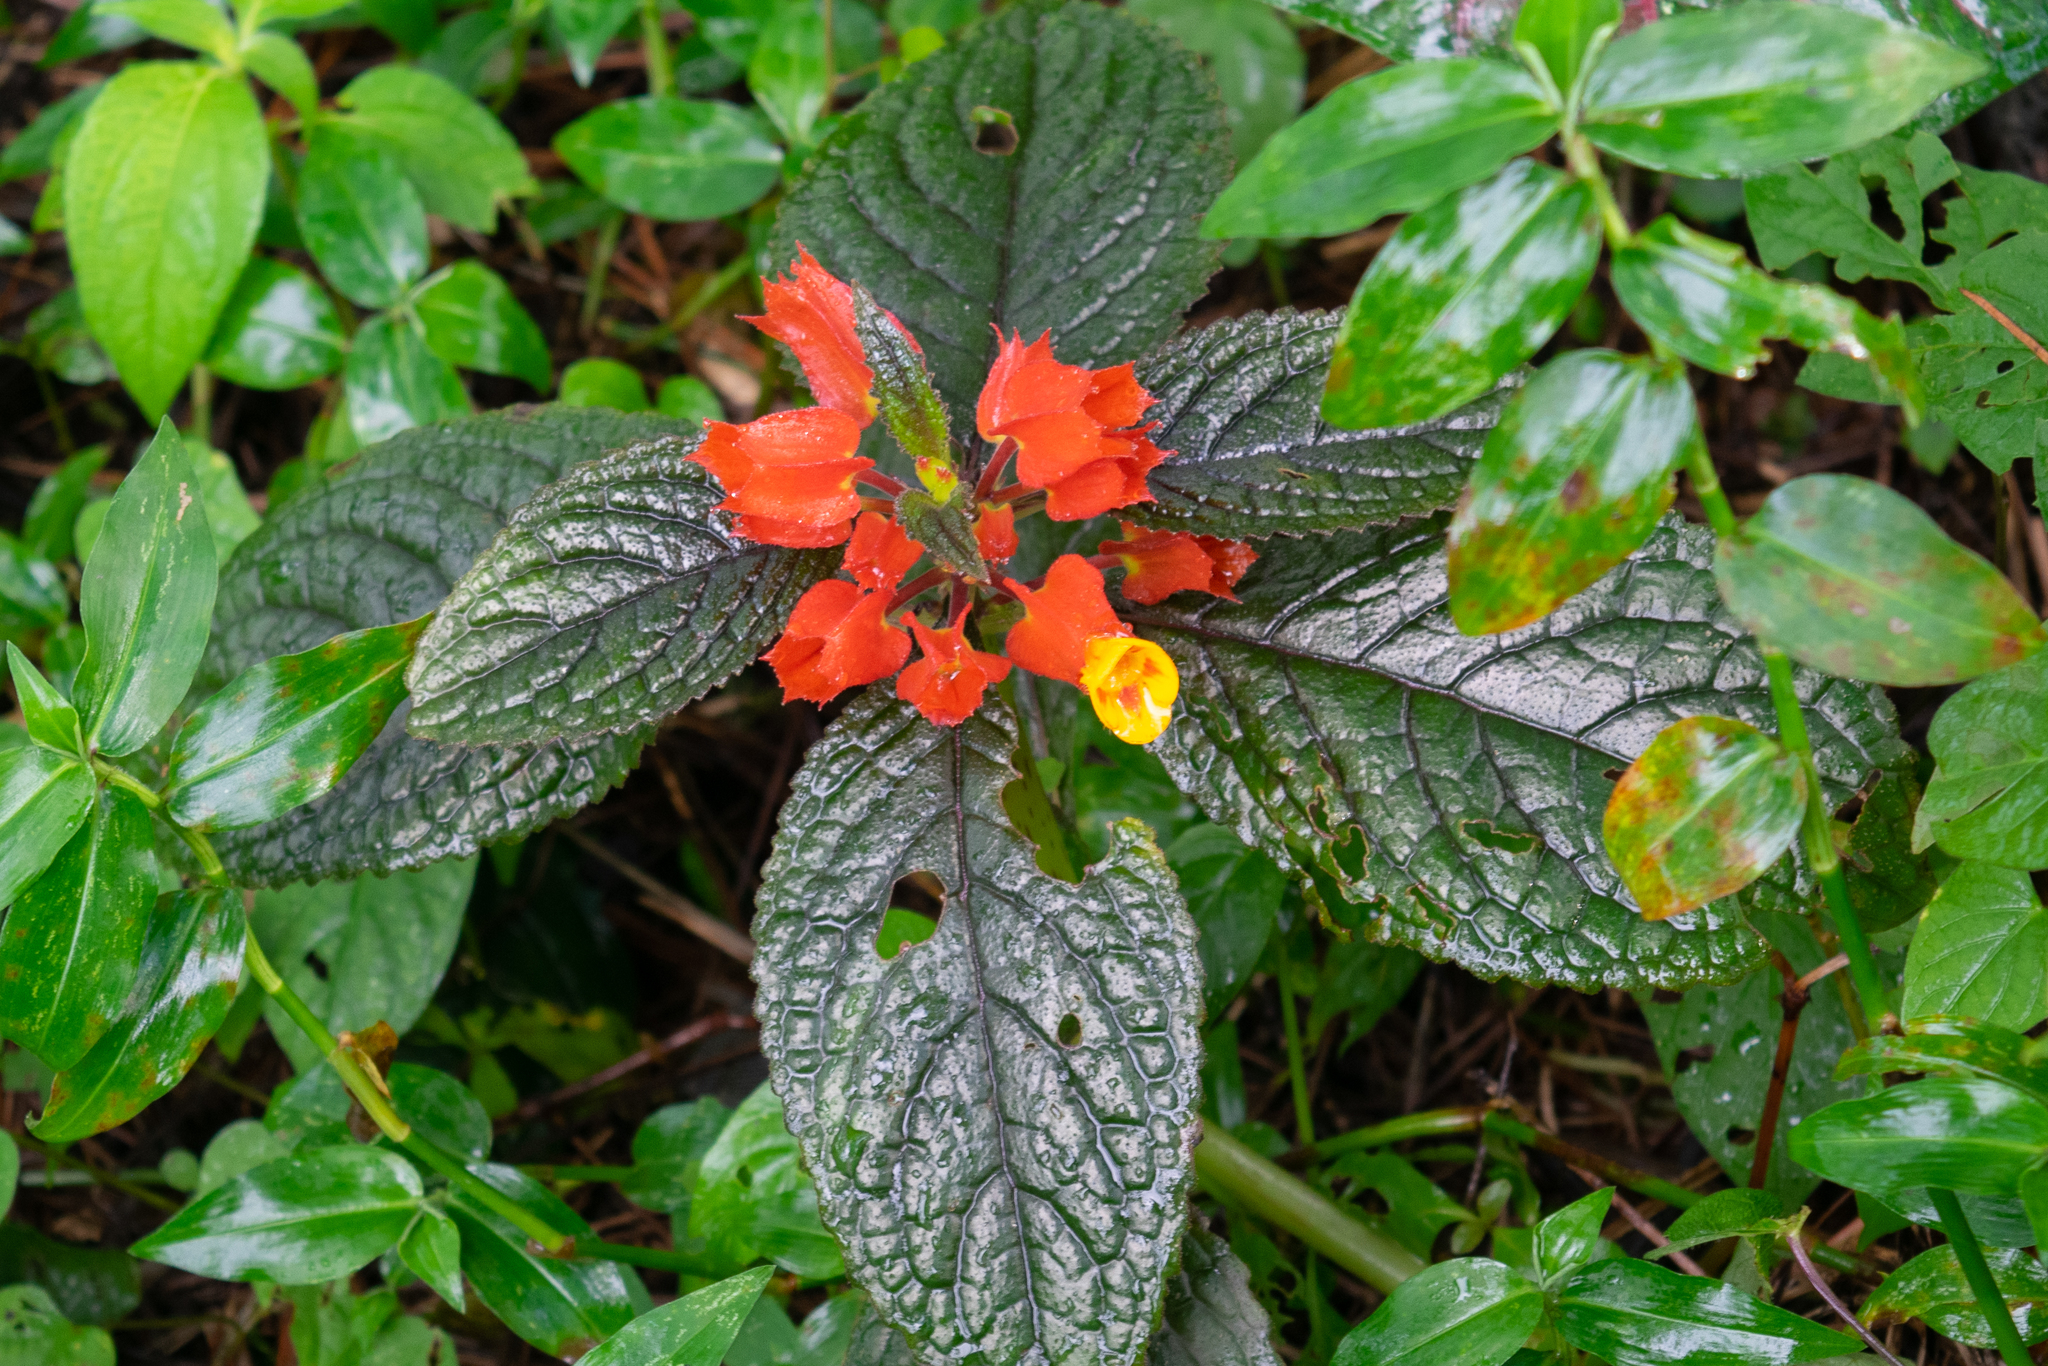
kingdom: Plantae
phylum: Tracheophyta
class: Magnoliopsida
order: Lamiales
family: Gesneriaceae
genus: Chrysothemis
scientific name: Chrysothemis pulchella
